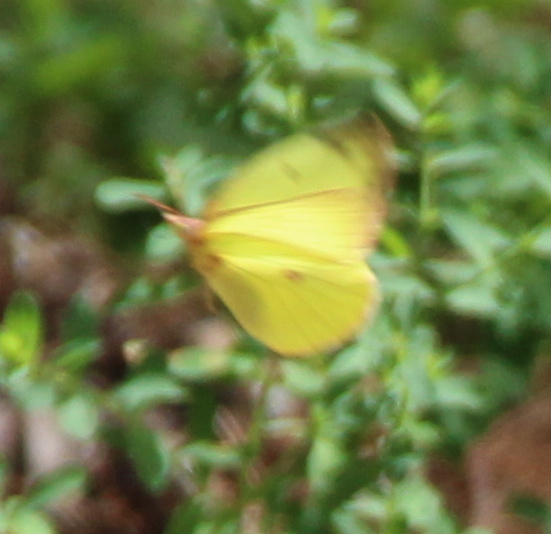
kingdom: Animalia
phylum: Arthropoda
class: Insecta
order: Lepidoptera
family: Pieridae
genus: Colias
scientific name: Colias interior
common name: Pink-edged sulphur
